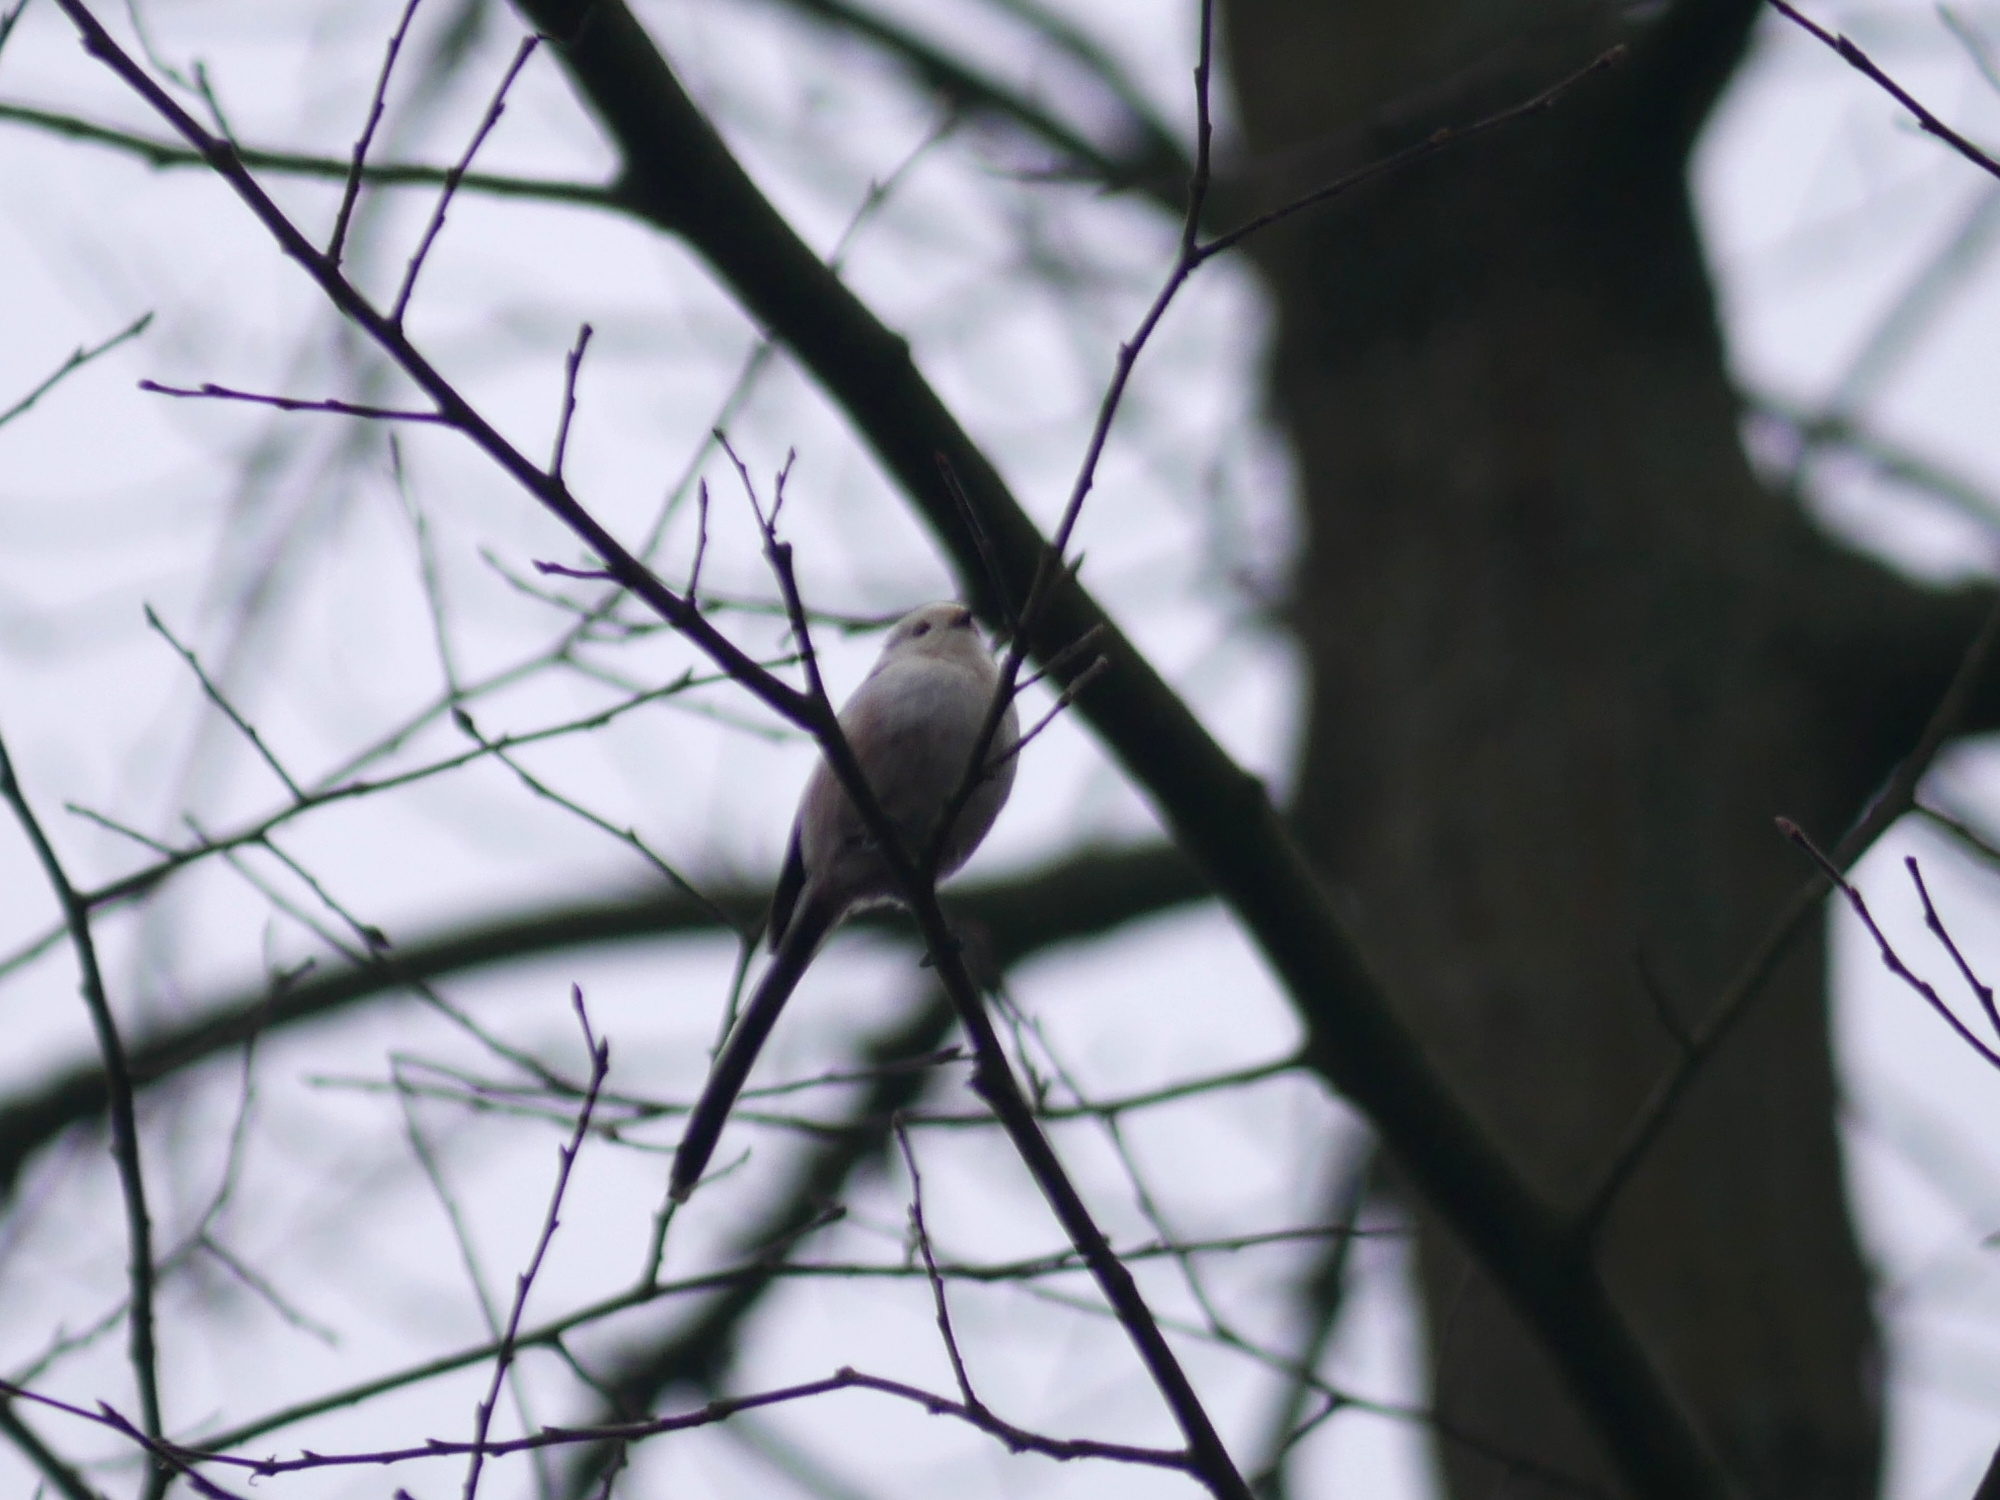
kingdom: Animalia
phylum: Chordata
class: Aves
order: Passeriformes
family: Aegithalidae
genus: Aegithalos
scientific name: Aegithalos caudatus
